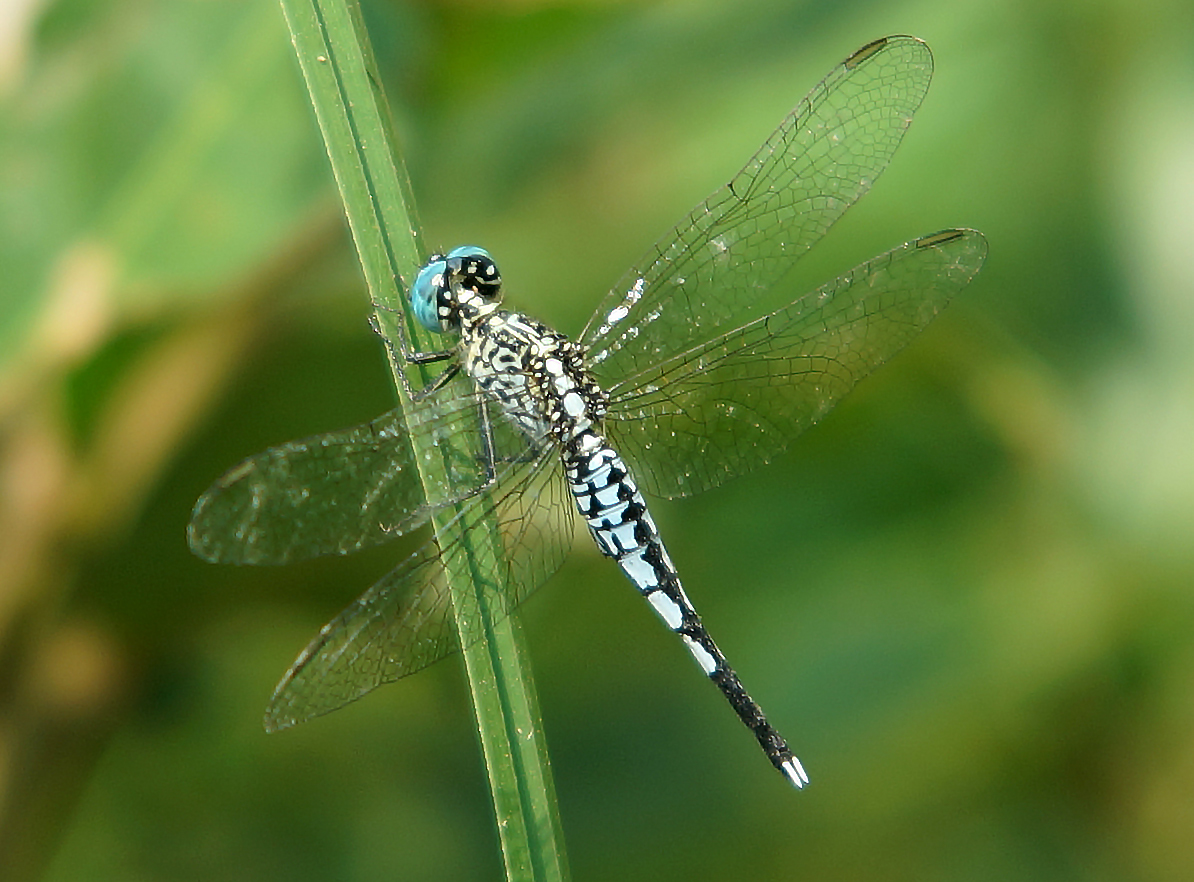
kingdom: Animalia
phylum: Arthropoda
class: Insecta
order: Odonata
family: Libellulidae
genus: Acisoma
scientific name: Acisoma panorpoides
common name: Asian pintail
